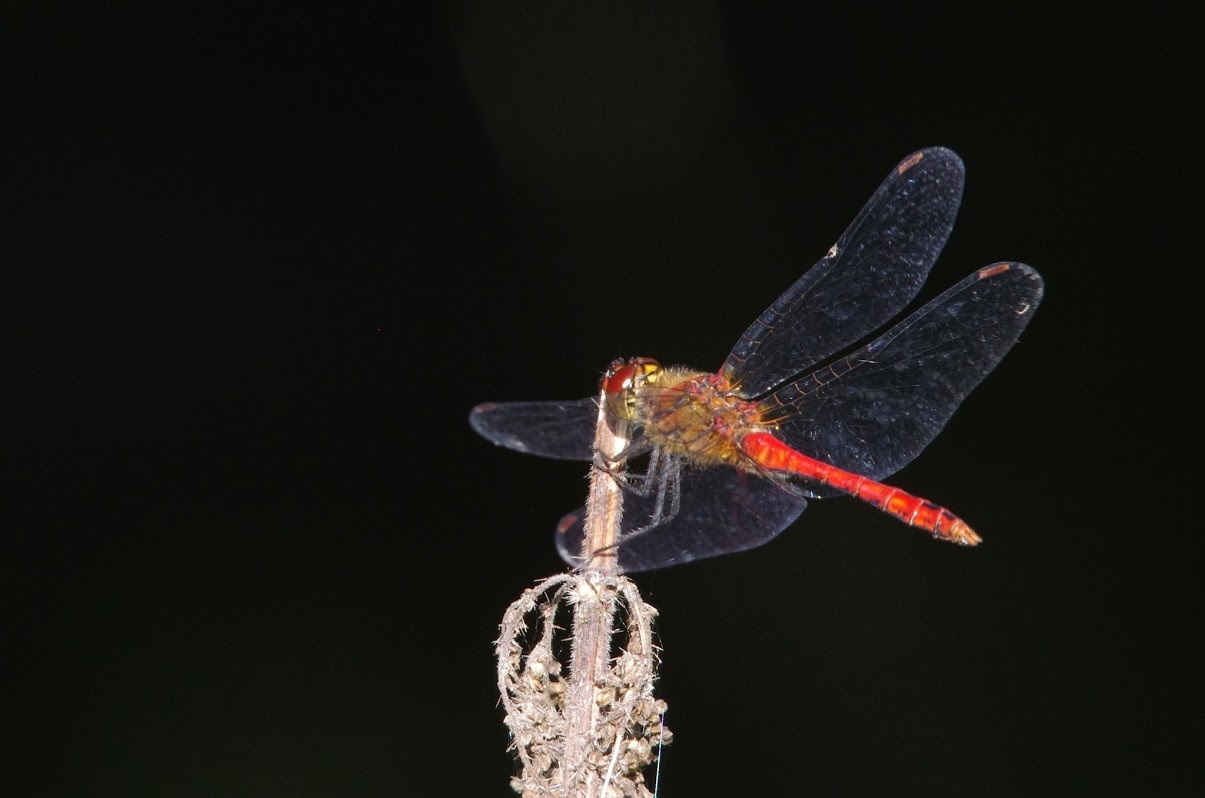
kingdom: Animalia
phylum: Arthropoda
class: Insecta
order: Odonata
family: Libellulidae
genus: Sympetrum
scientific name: Sympetrum sanguineum
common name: Ruddy darter
